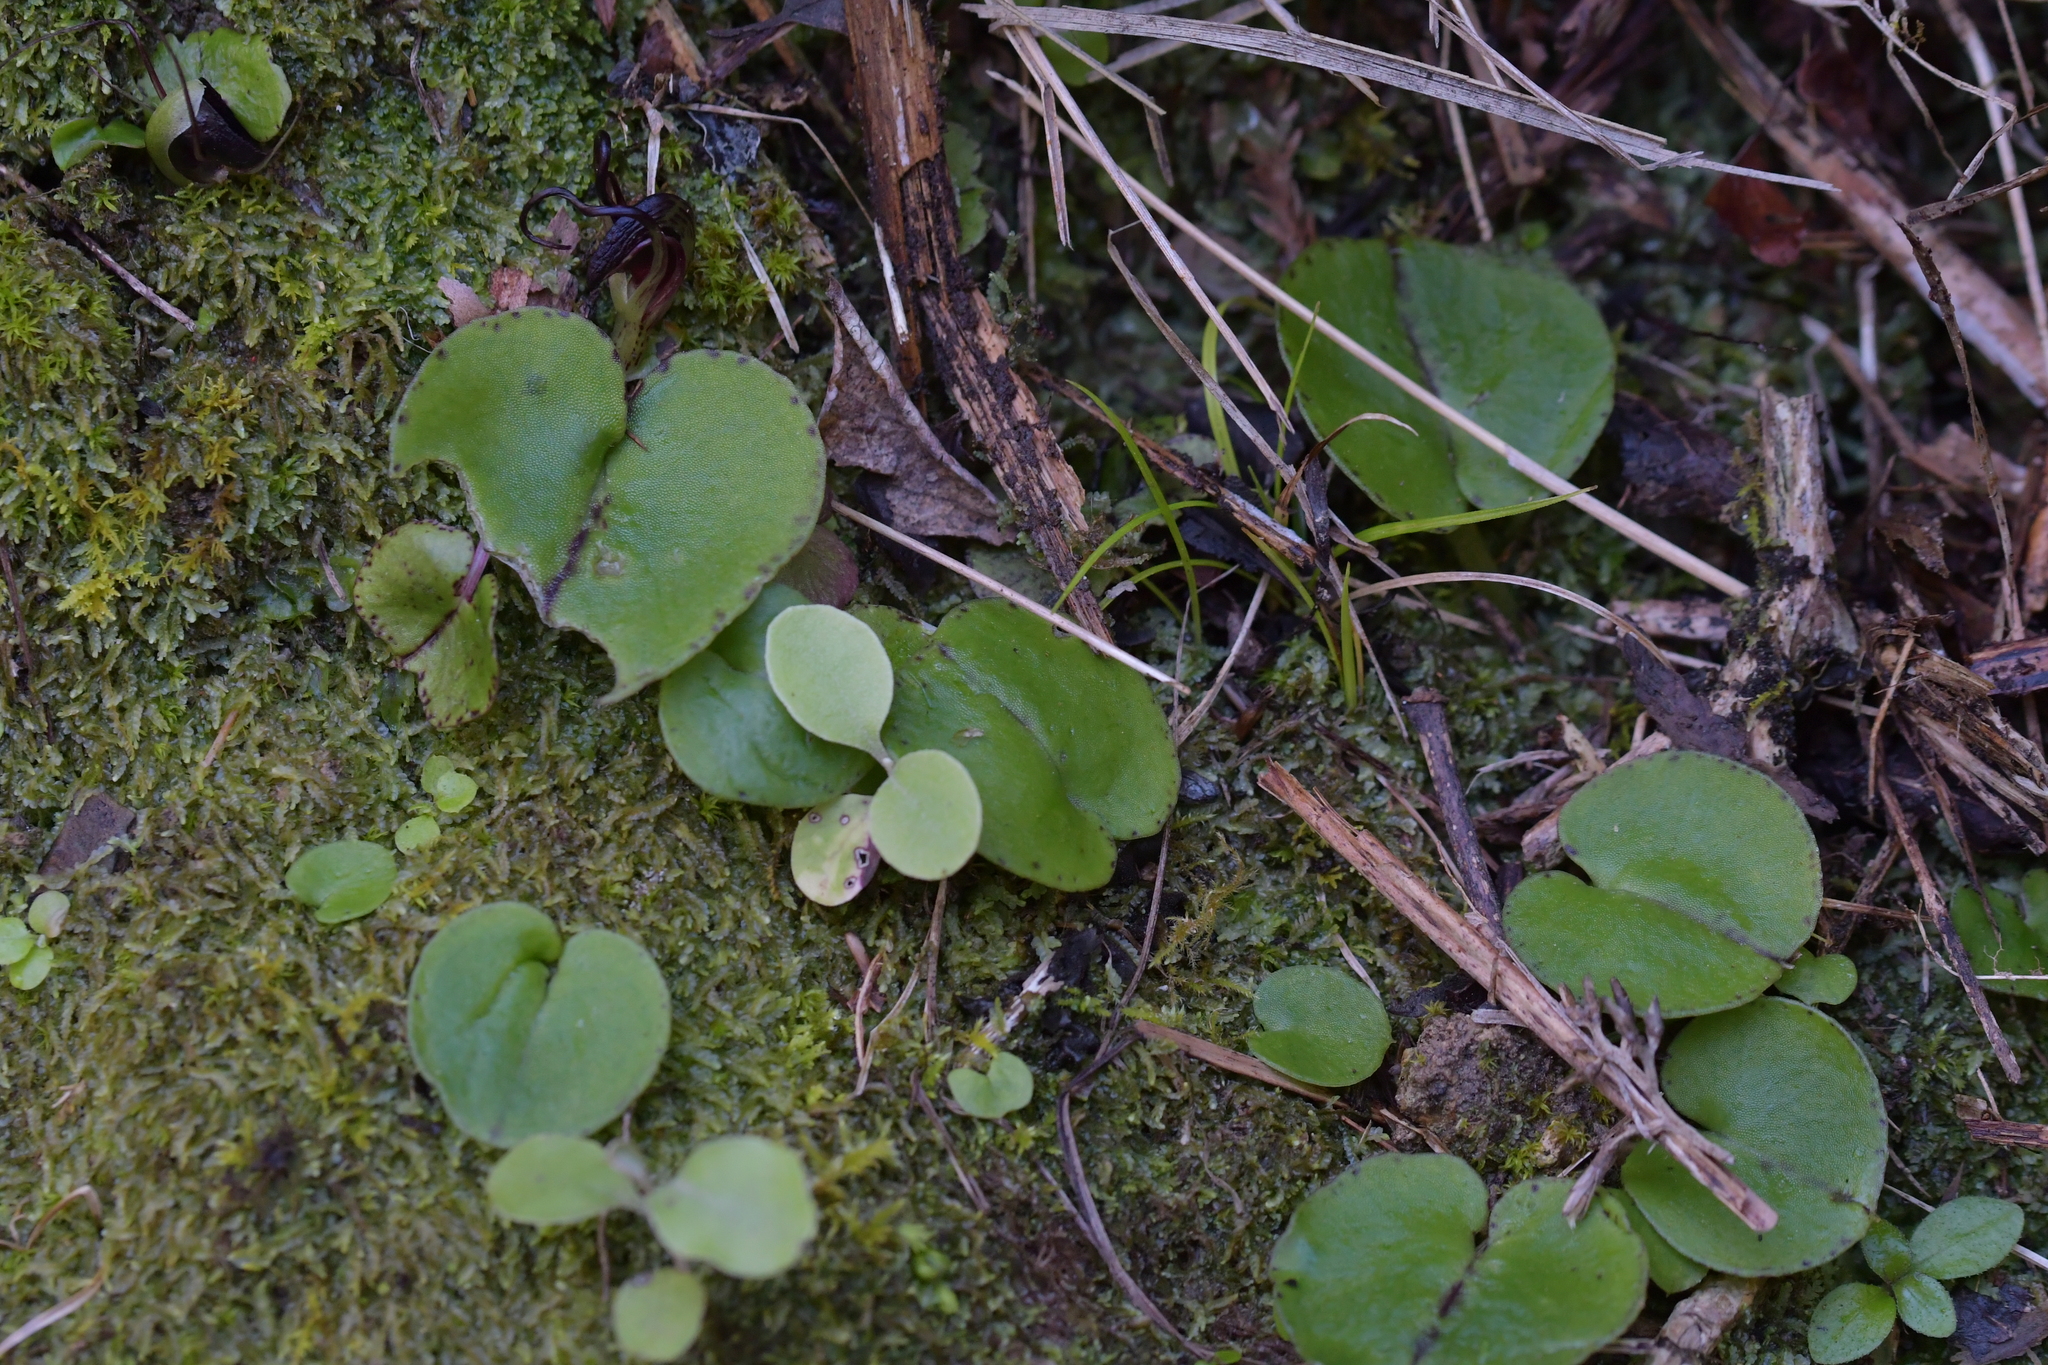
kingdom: Plantae
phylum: Tracheophyta
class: Liliopsida
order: Asparagales
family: Orchidaceae
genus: Corybas
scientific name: Corybas macranthus
